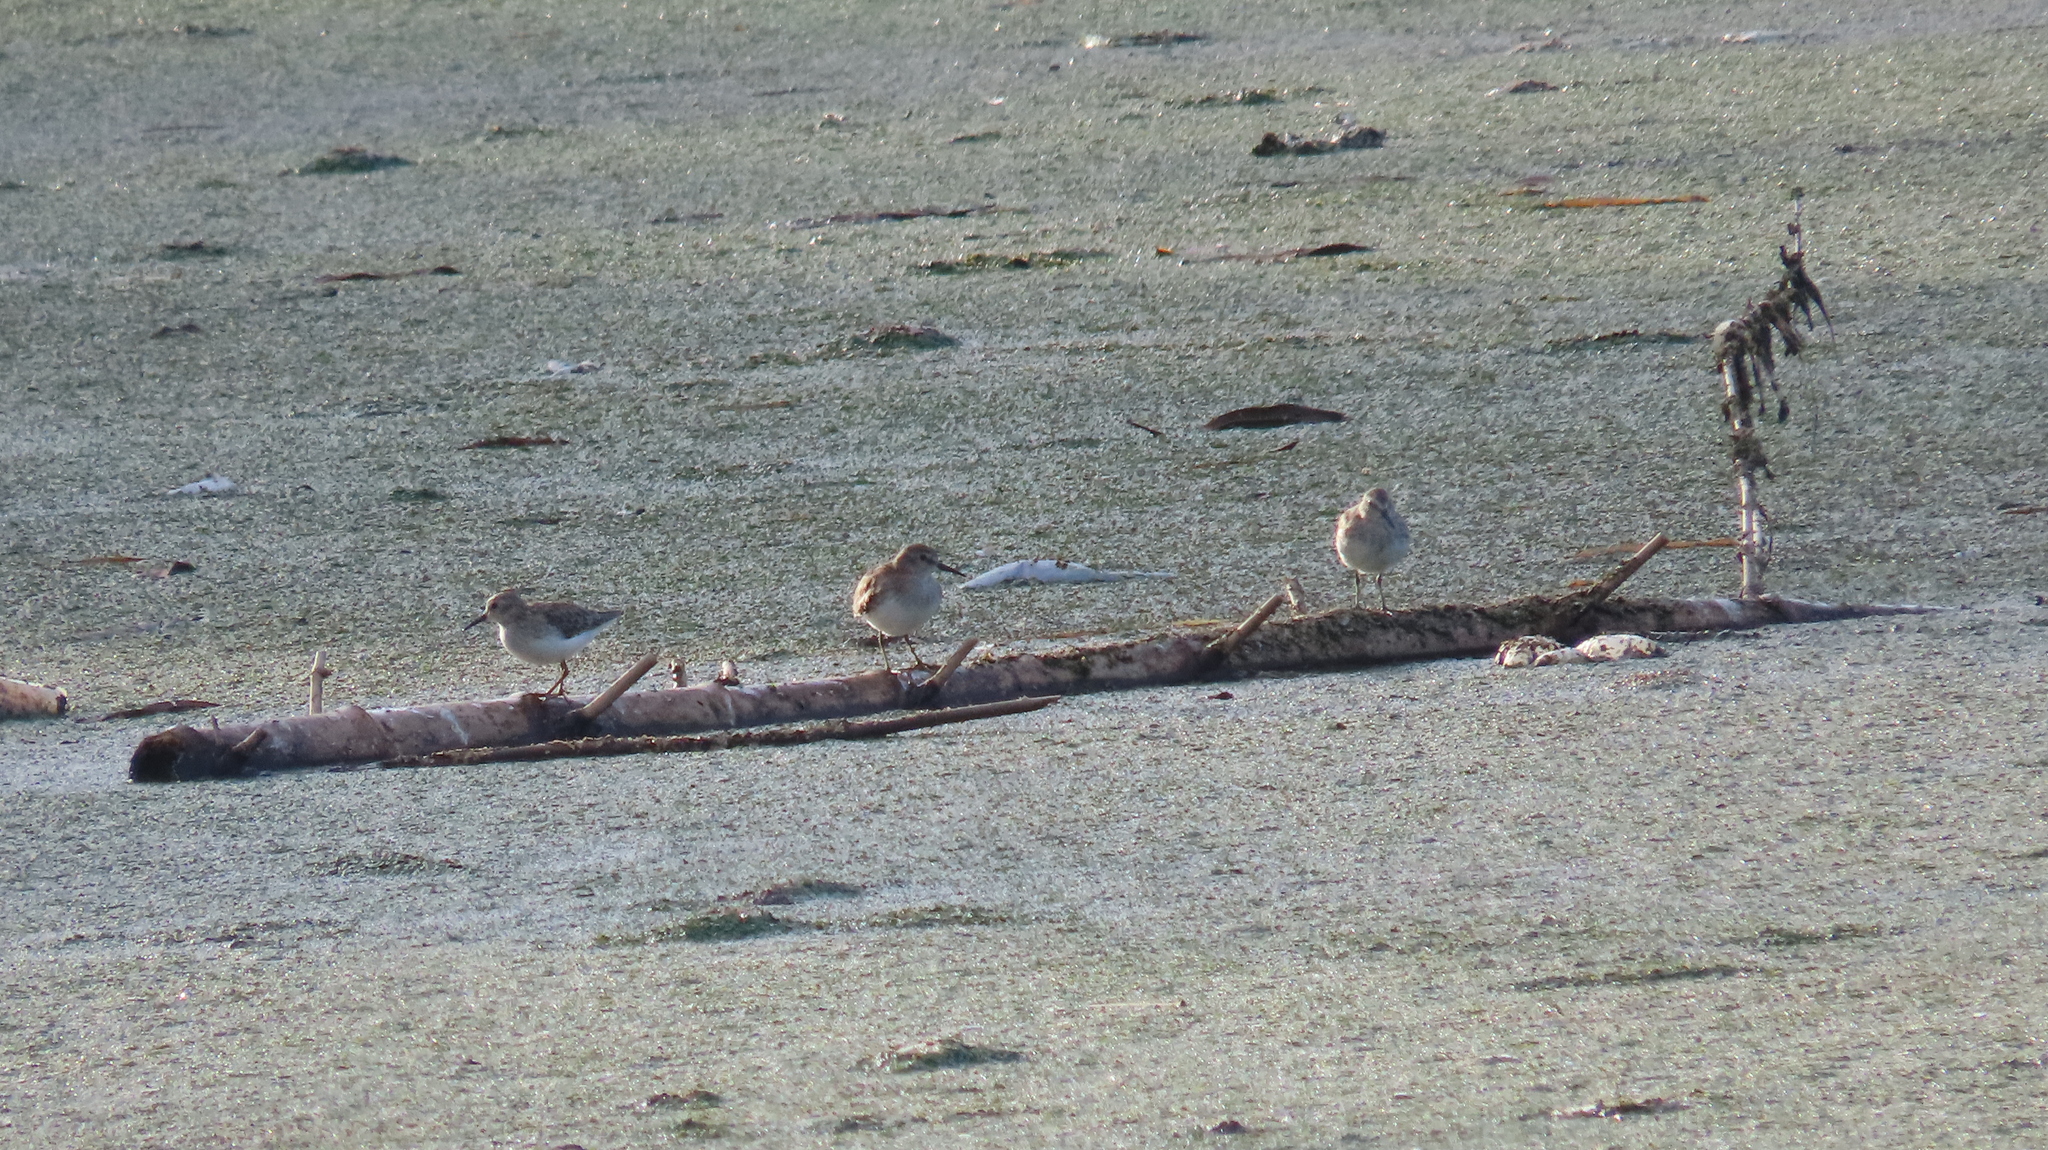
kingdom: Animalia
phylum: Chordata
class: Aves
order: Charadriiformes
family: Scolopacidae
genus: Calidris
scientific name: Calidris minutilla
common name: Least sandpiper
